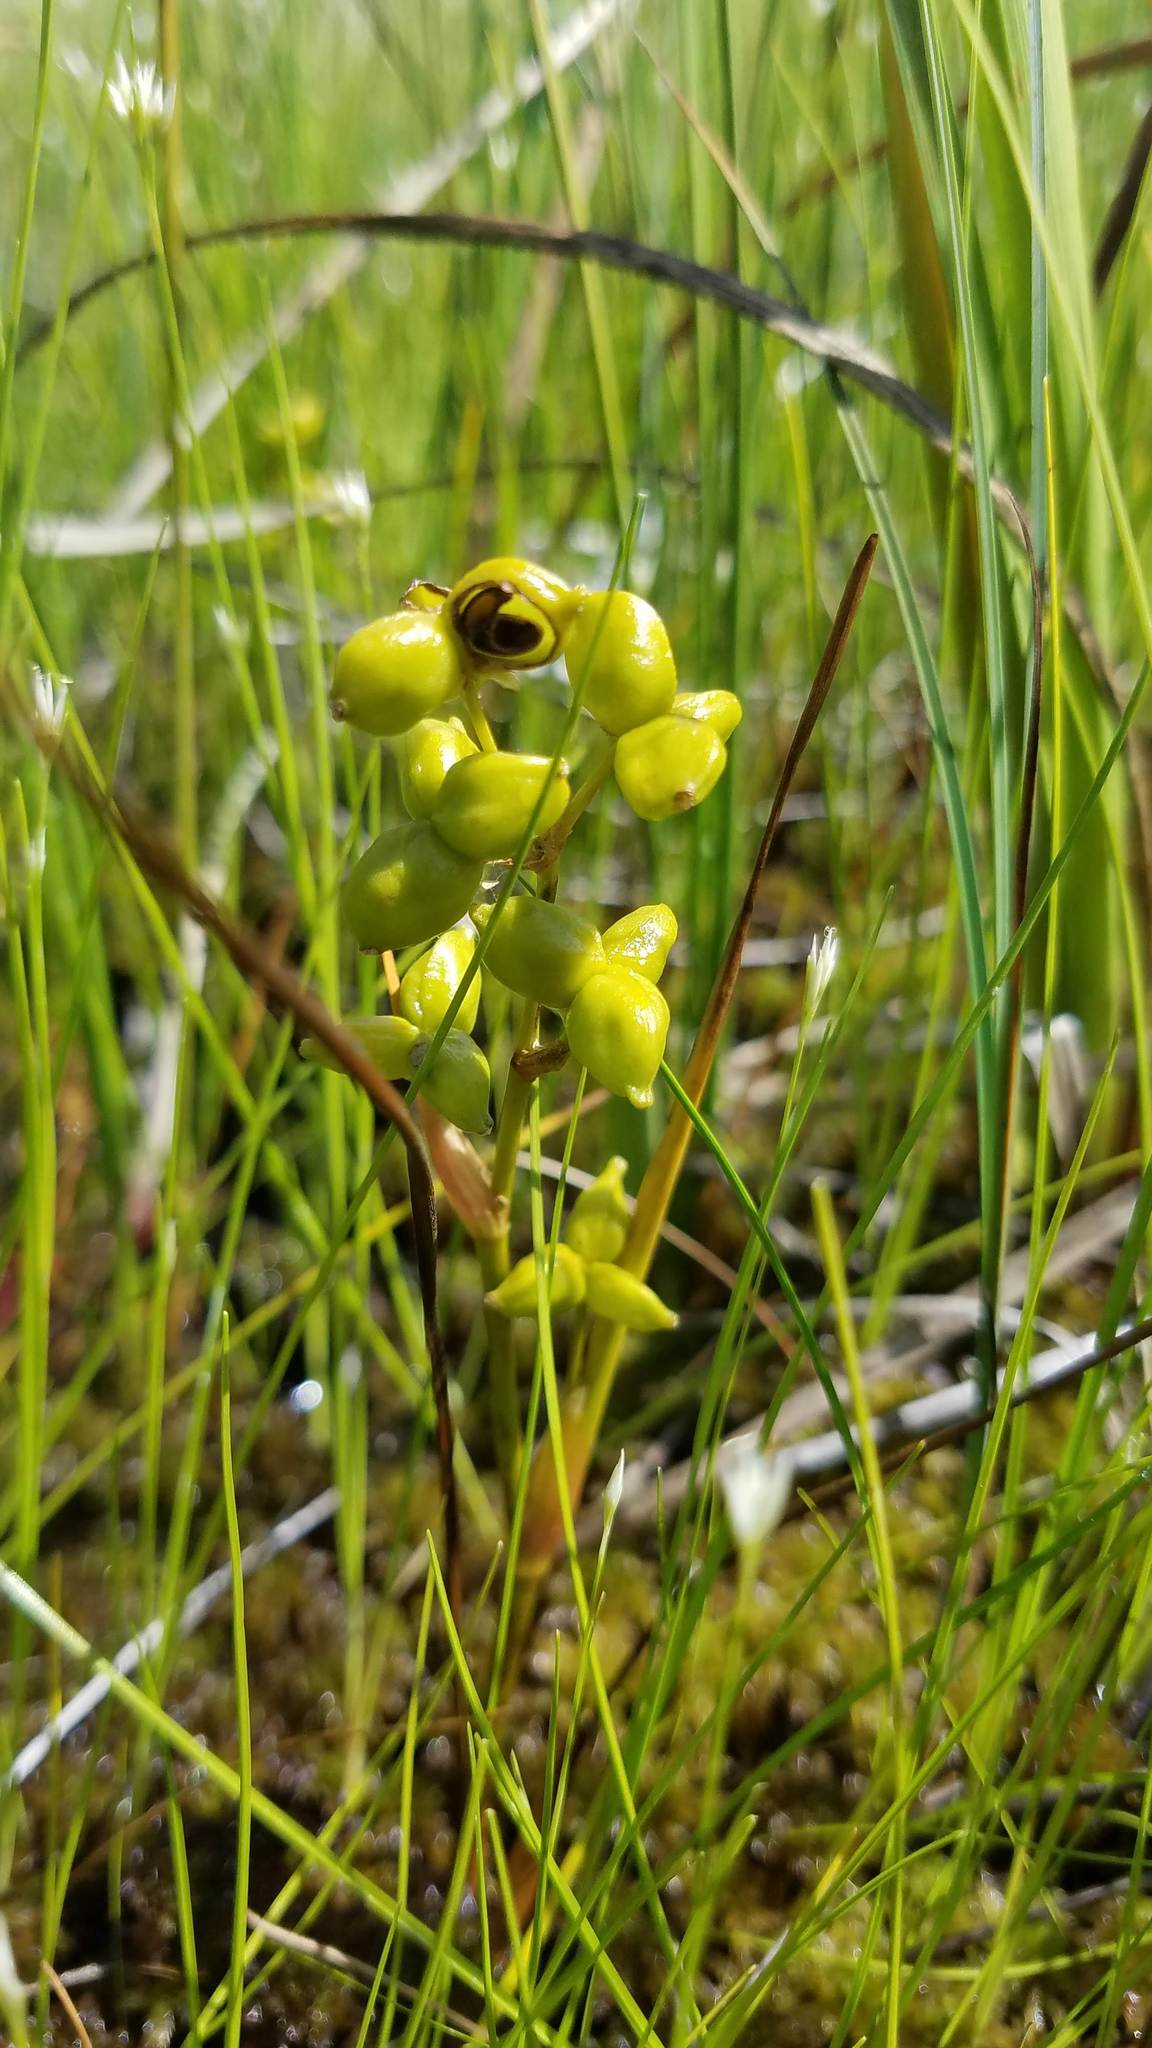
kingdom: Plantae
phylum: Tracheophyta
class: Liliopsida
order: Alismatales
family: Scheuchzeriaceae
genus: Scheuchzeria
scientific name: Scheuchzeria palustris
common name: Rannoch-rush
